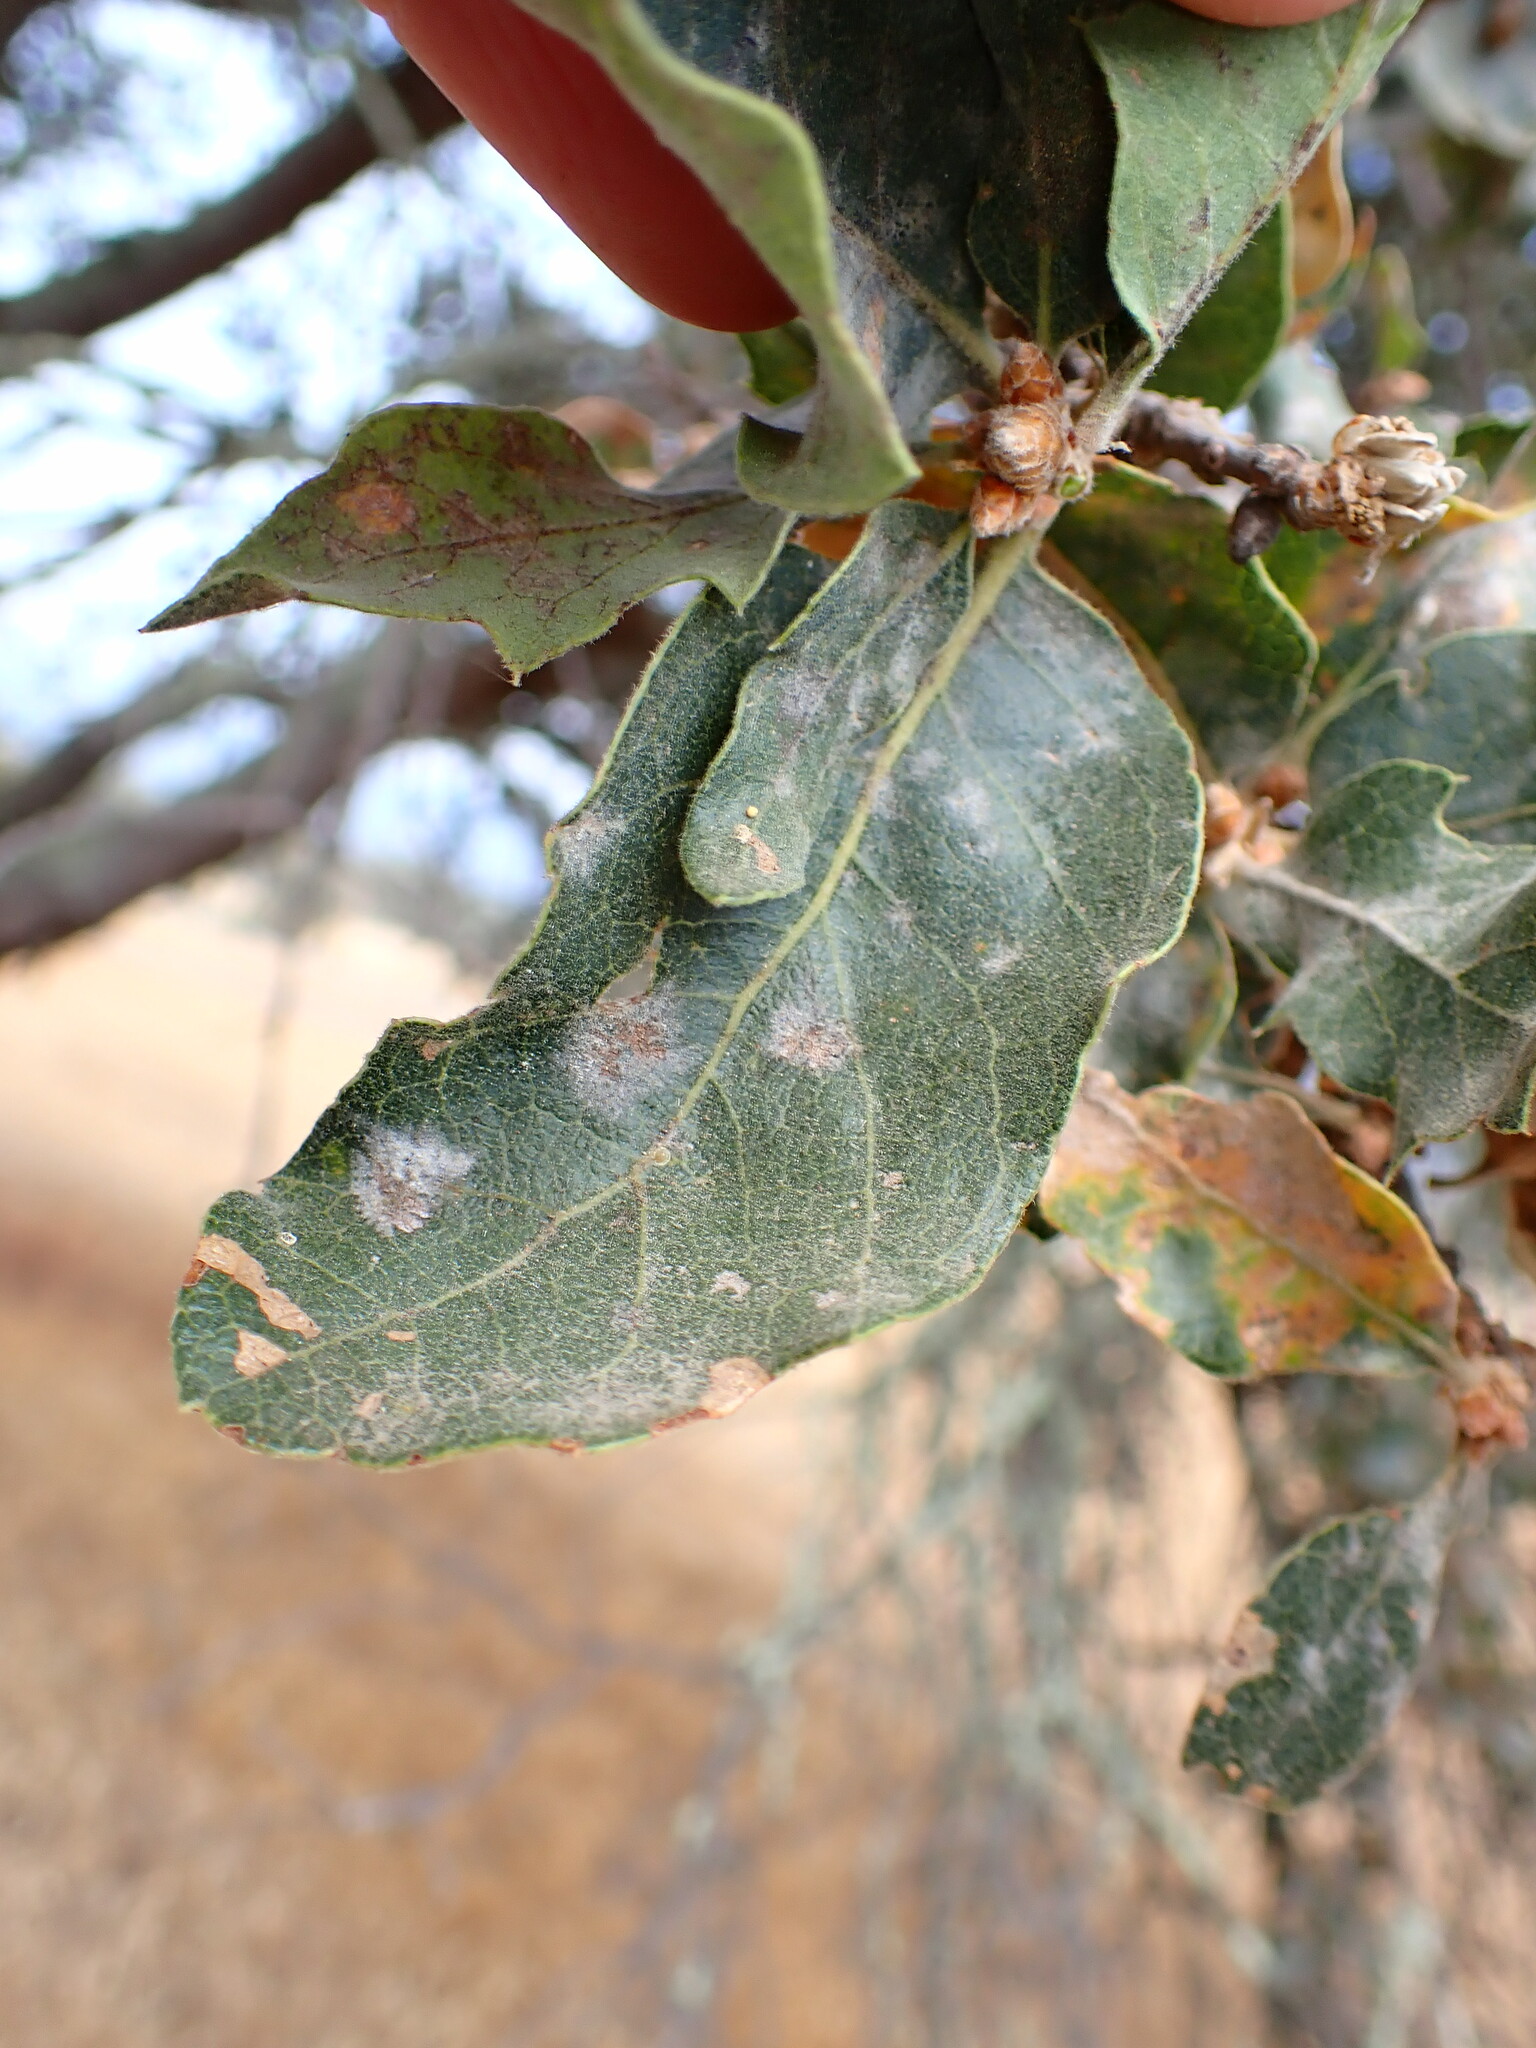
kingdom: Plantae
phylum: Tracheophyta
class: Magnoliopsida
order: Fagales
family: Fagaceae
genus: Quercus
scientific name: Quercus douglasii
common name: Blue oak
